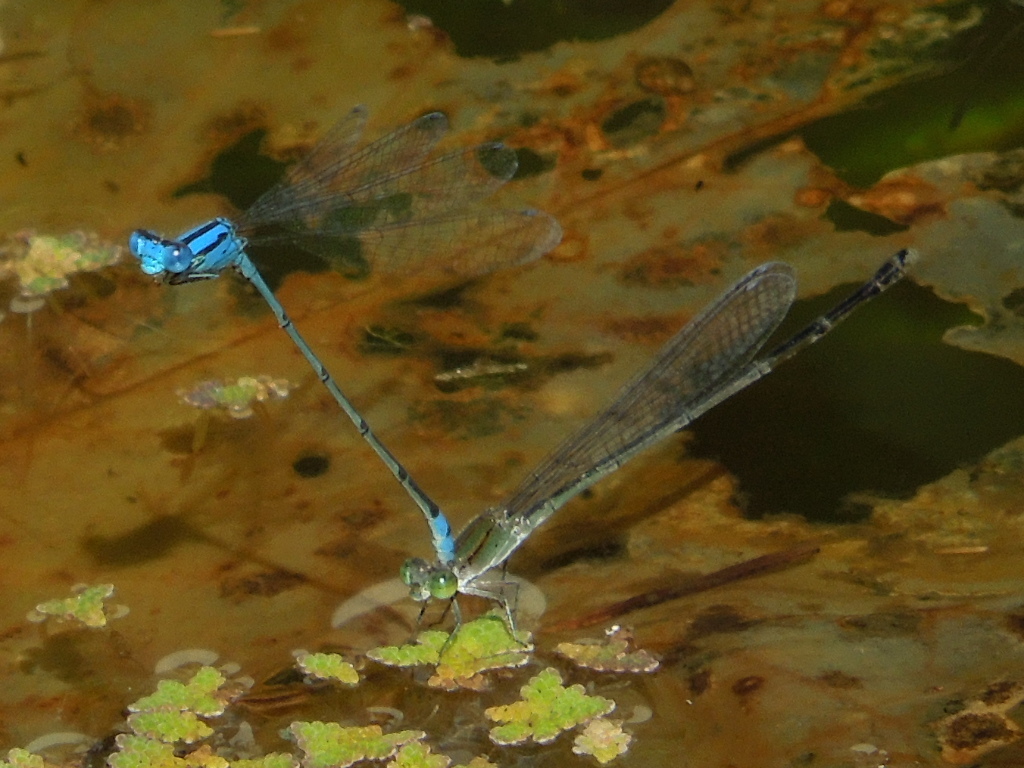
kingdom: Animalia
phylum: Arthropoda
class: Insecta
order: Odonata
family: Coenagrionidae
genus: Pseudagrion
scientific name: Pseudagrion microcephalum
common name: Blue riverdamsel
